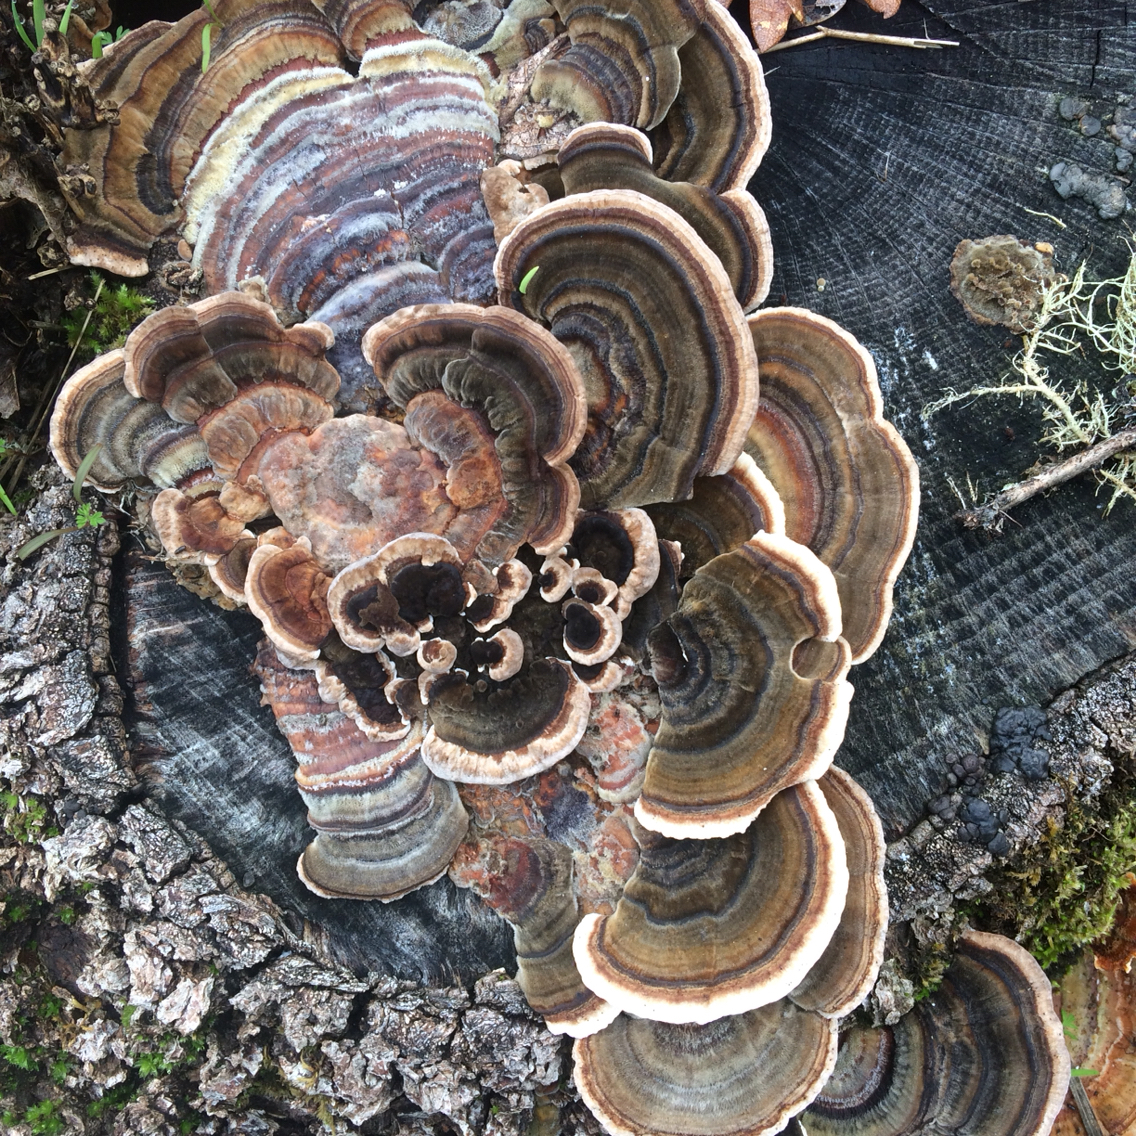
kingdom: Fungi
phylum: Basidiomycota
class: Agaricomycetes
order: Polyporales
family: Polyporaceae
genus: Trametes
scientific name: Trametes versicolor
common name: Turkeytail
